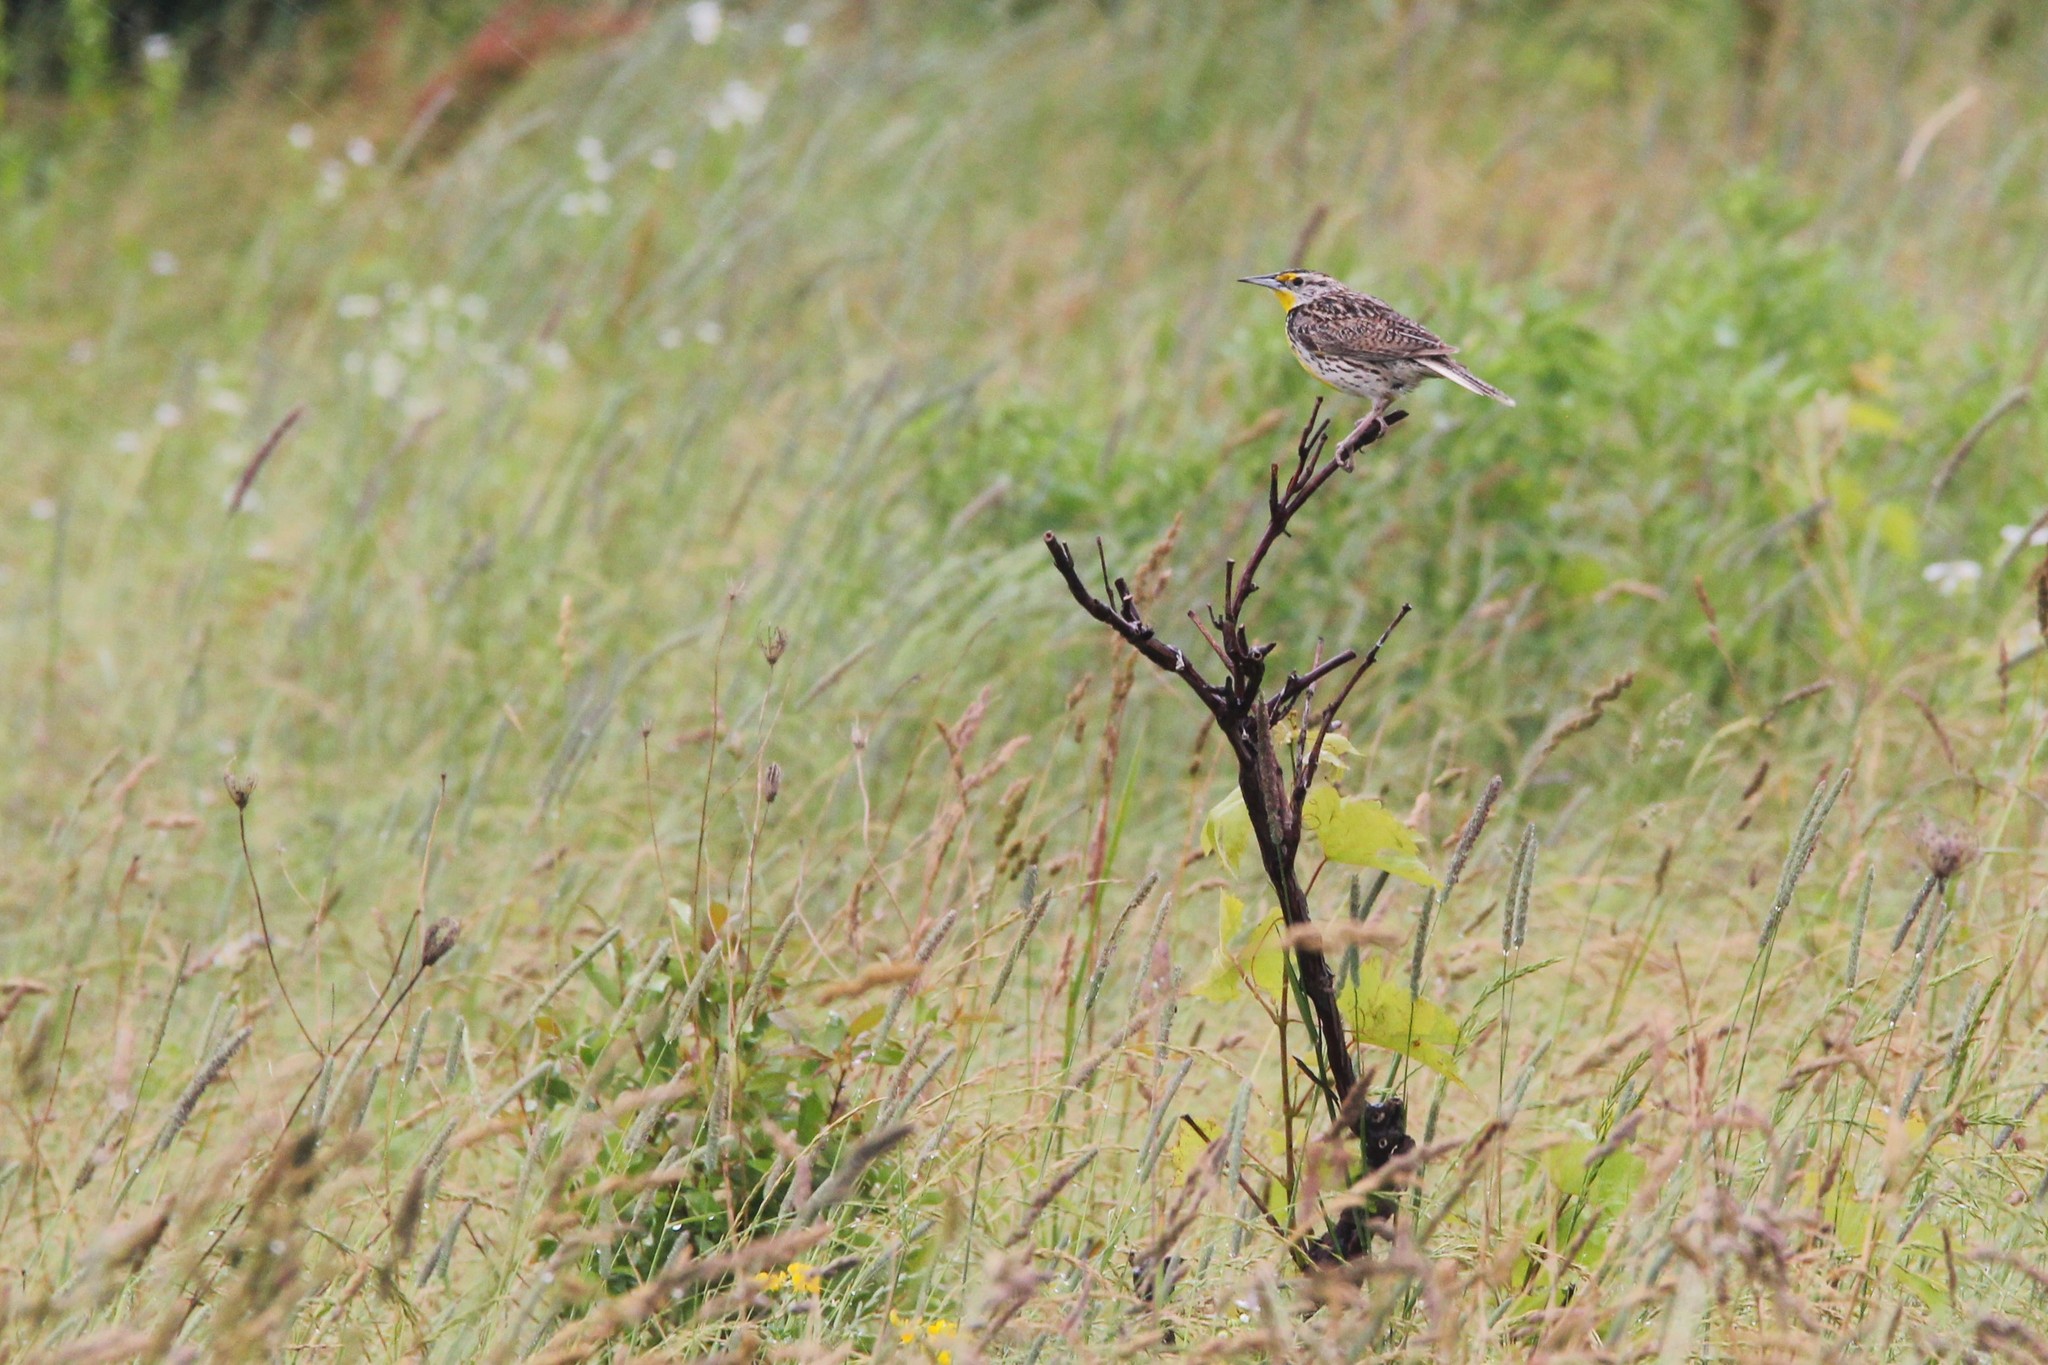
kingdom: Animalia
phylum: Chordata
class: Aves
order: Passeriformes
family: Icteridae
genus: Sturnella
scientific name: Sturnella neglecta
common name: Western meadowlark
